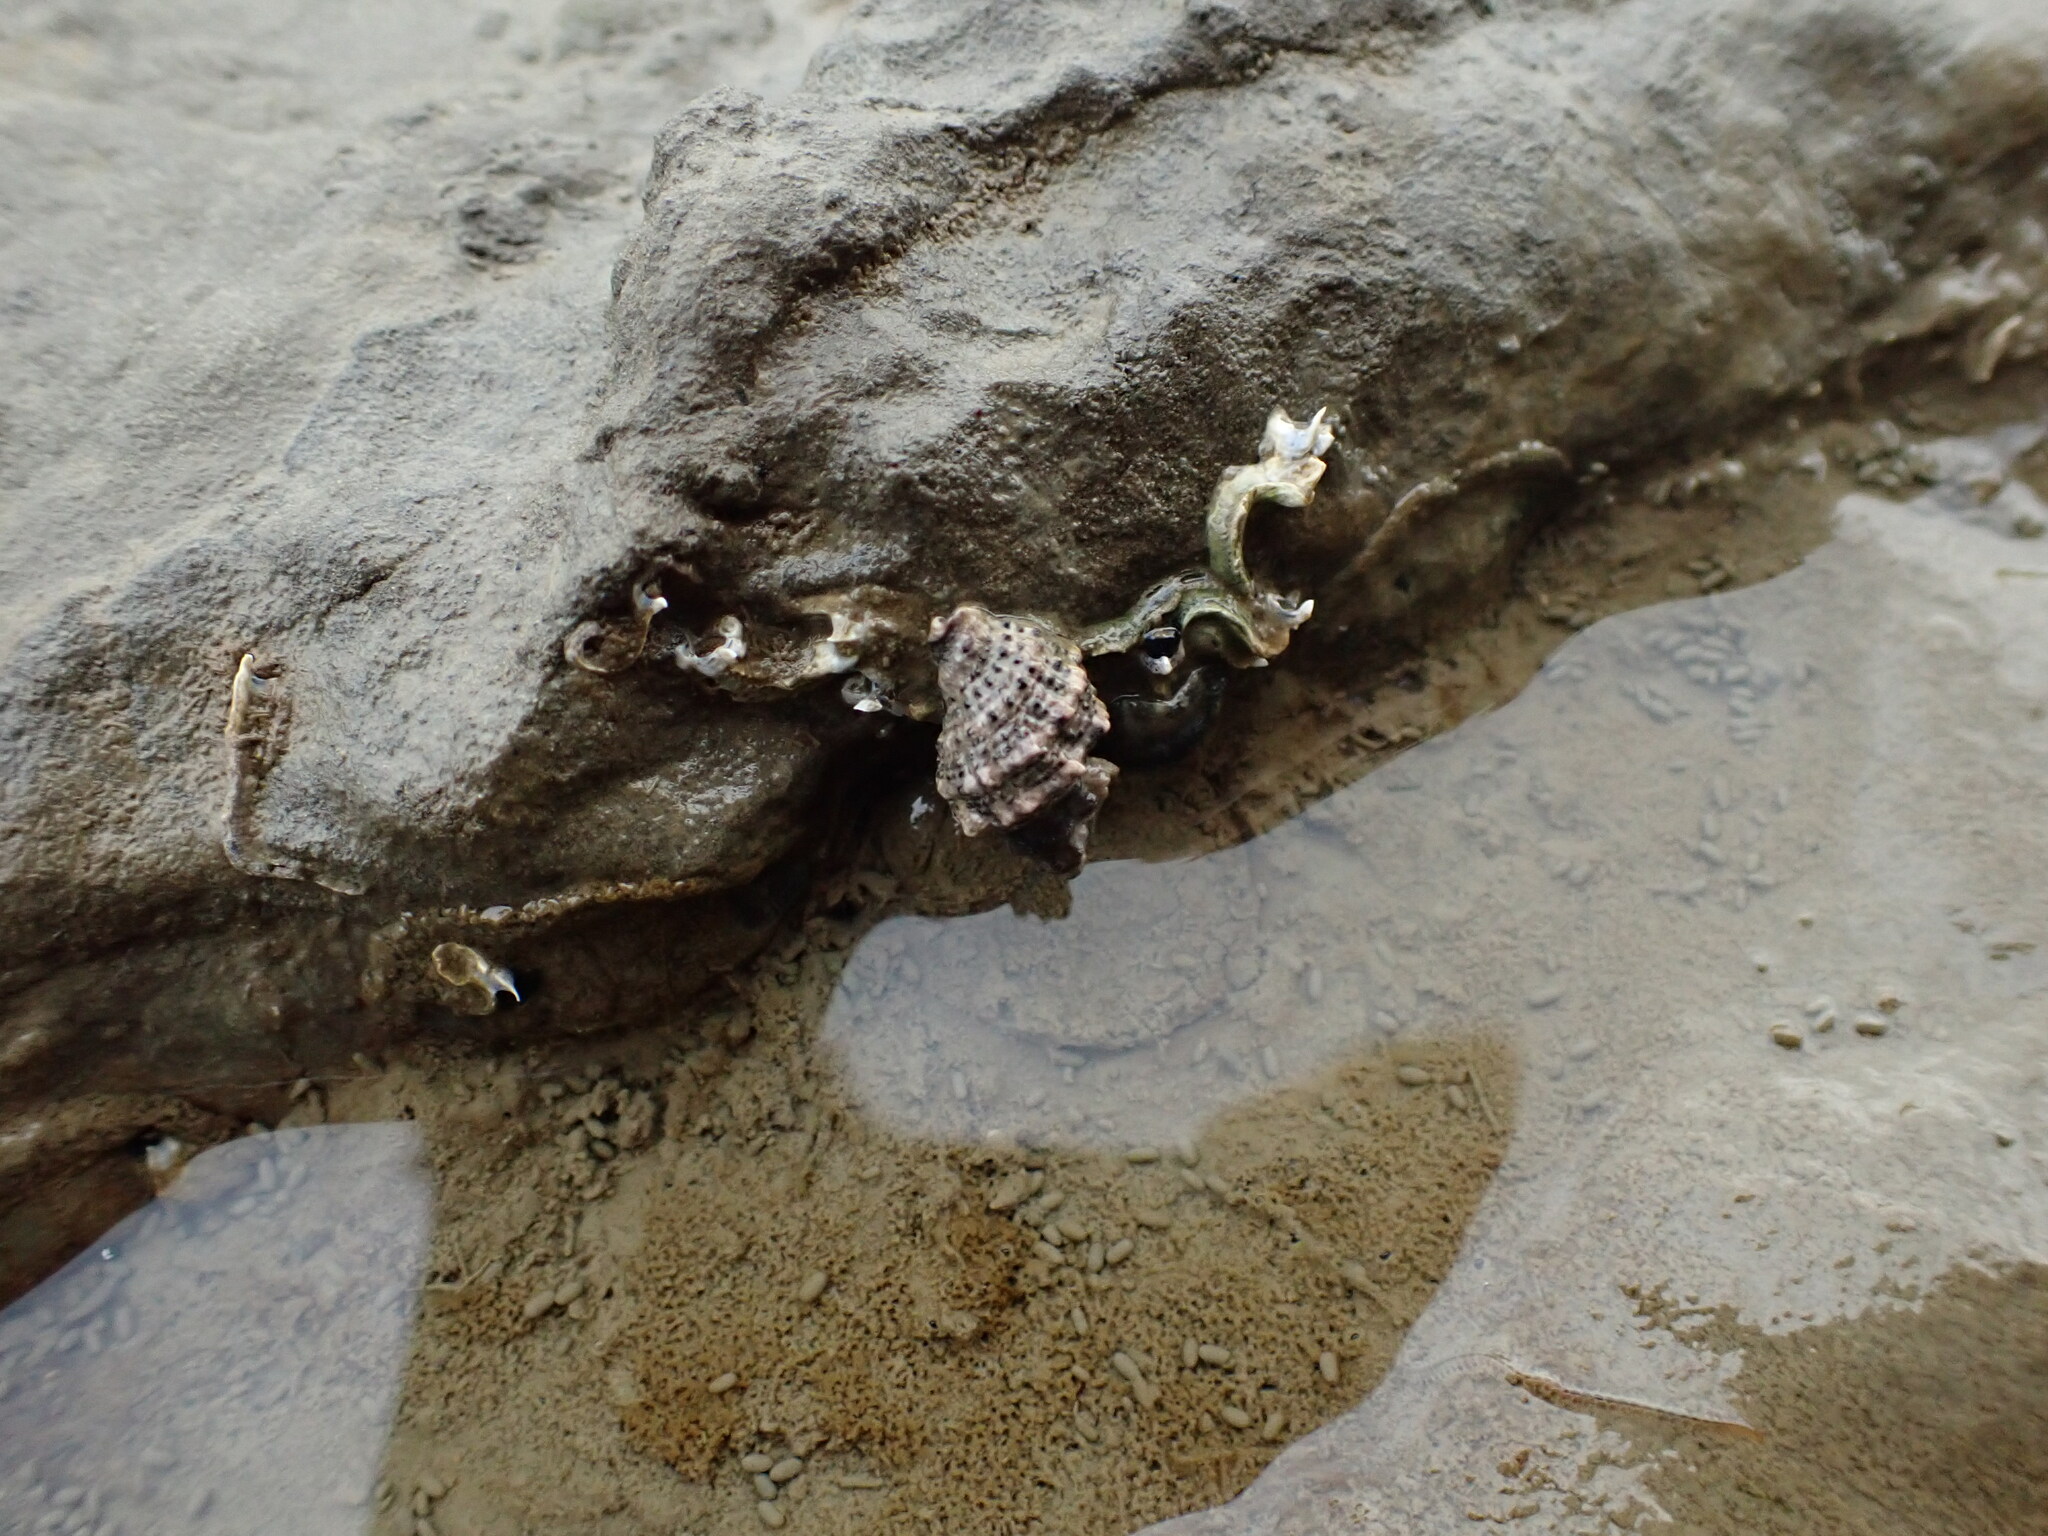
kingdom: Animalia
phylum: Mollusca
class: Gastropoda
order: Neogastropoda
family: Muricidae
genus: Haustrum
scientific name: Haustrum scobina
